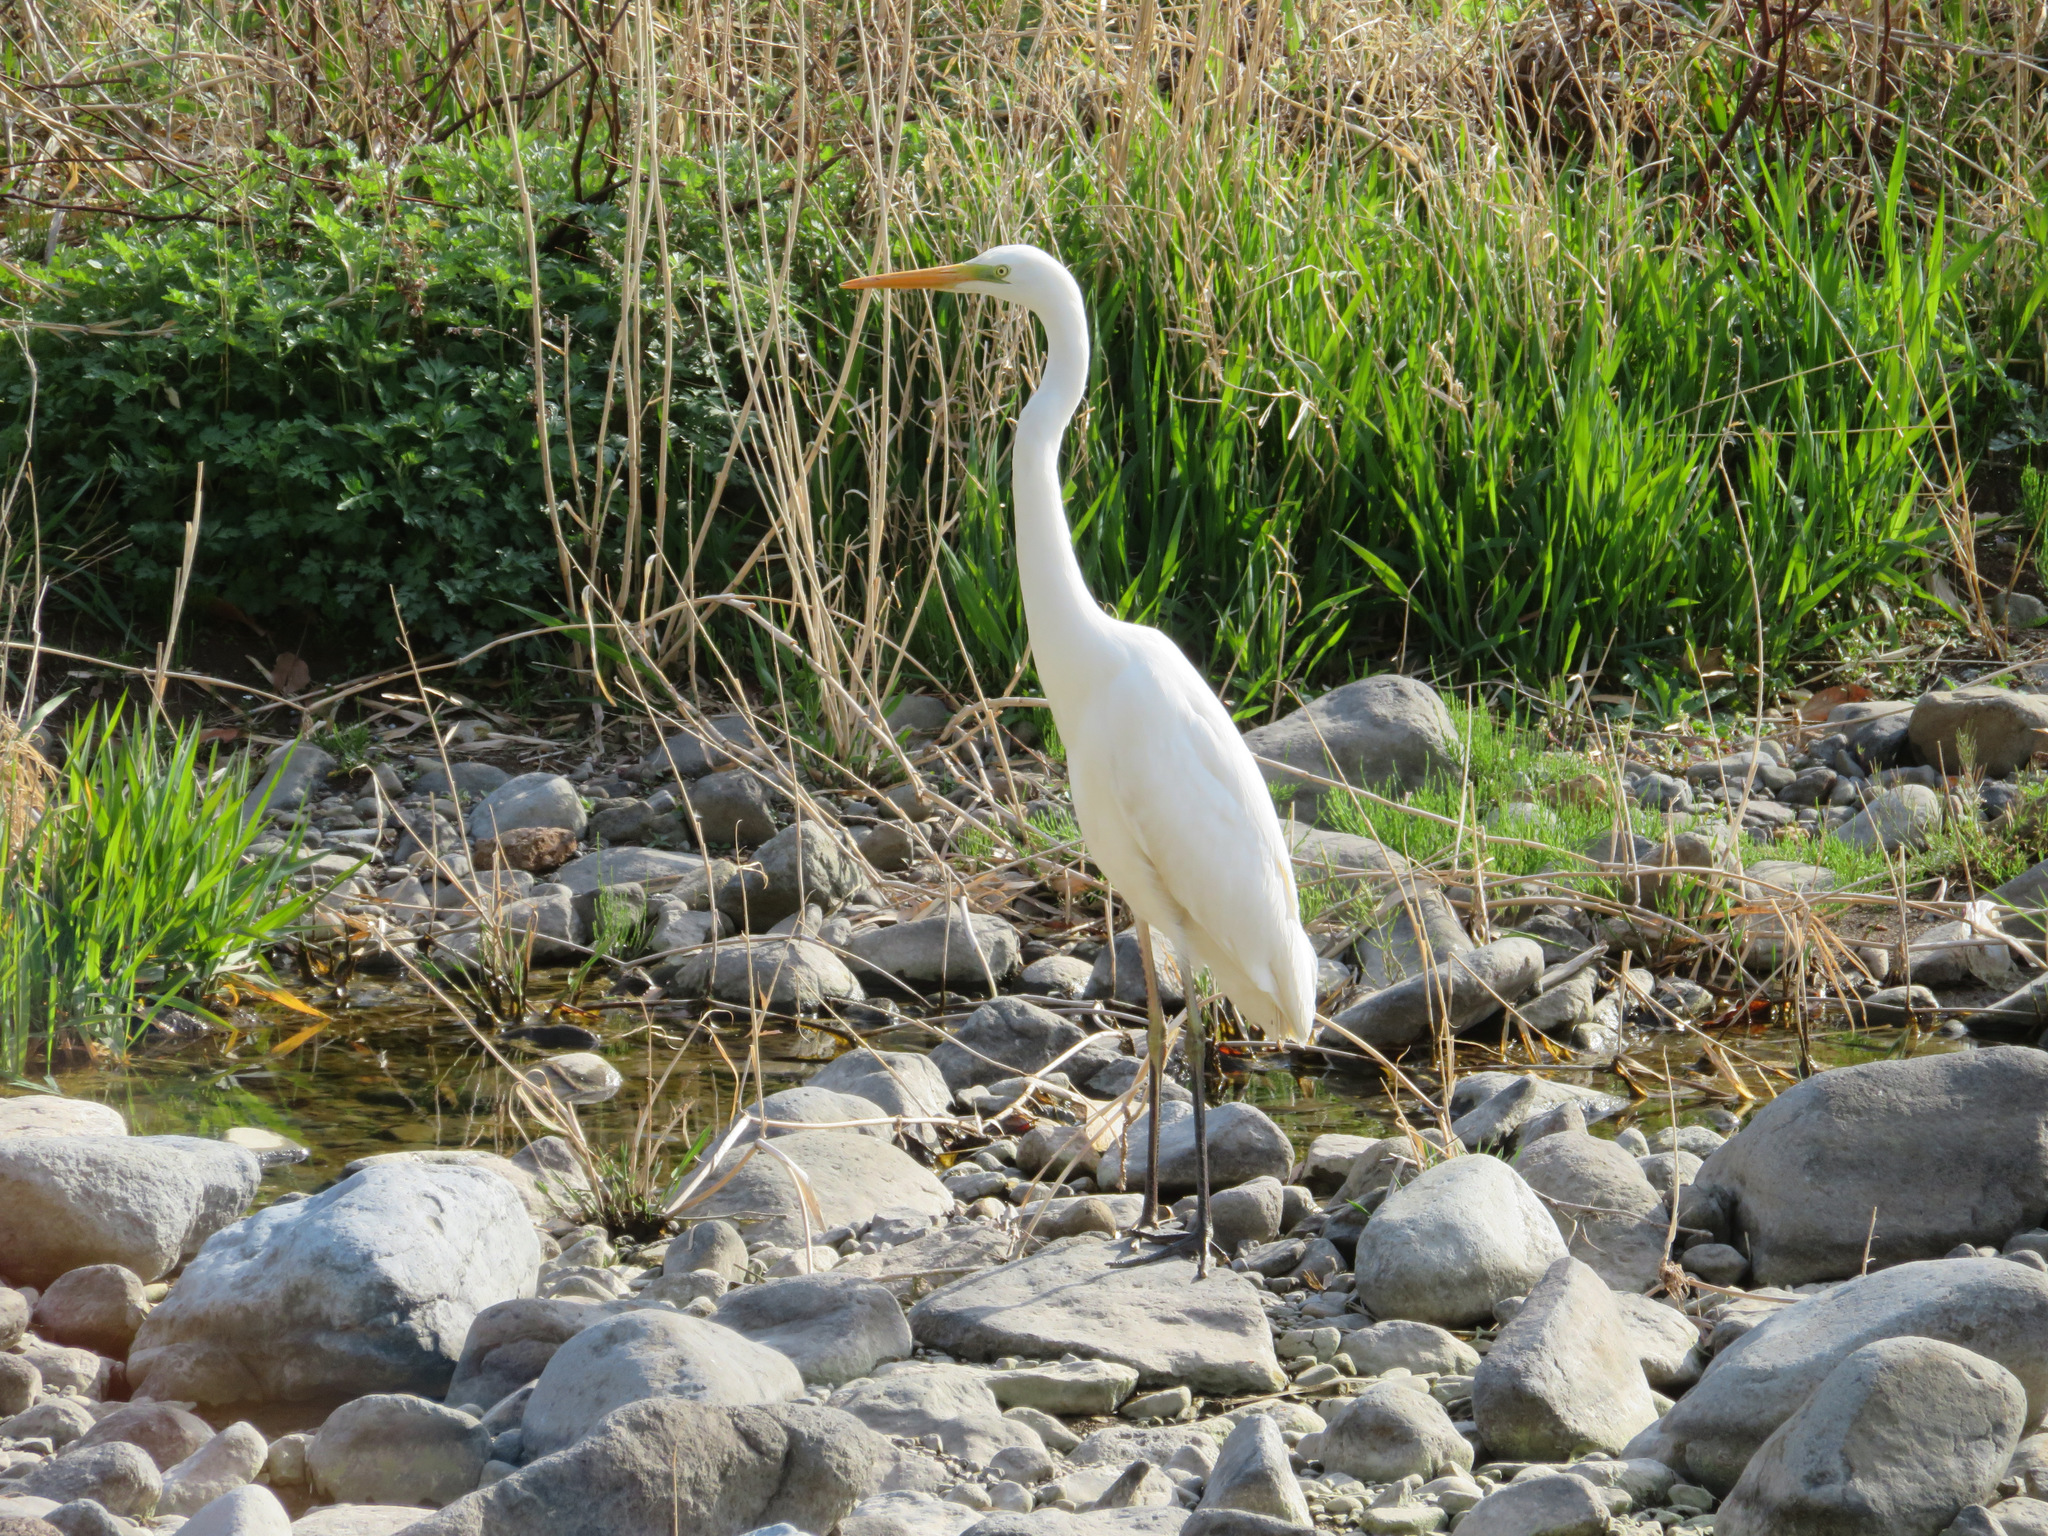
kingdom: Animalia
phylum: Chordata
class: Aves
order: Pelecaniformes
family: Ardeidae
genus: Ardea
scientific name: Ardea alba
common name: Great egret
